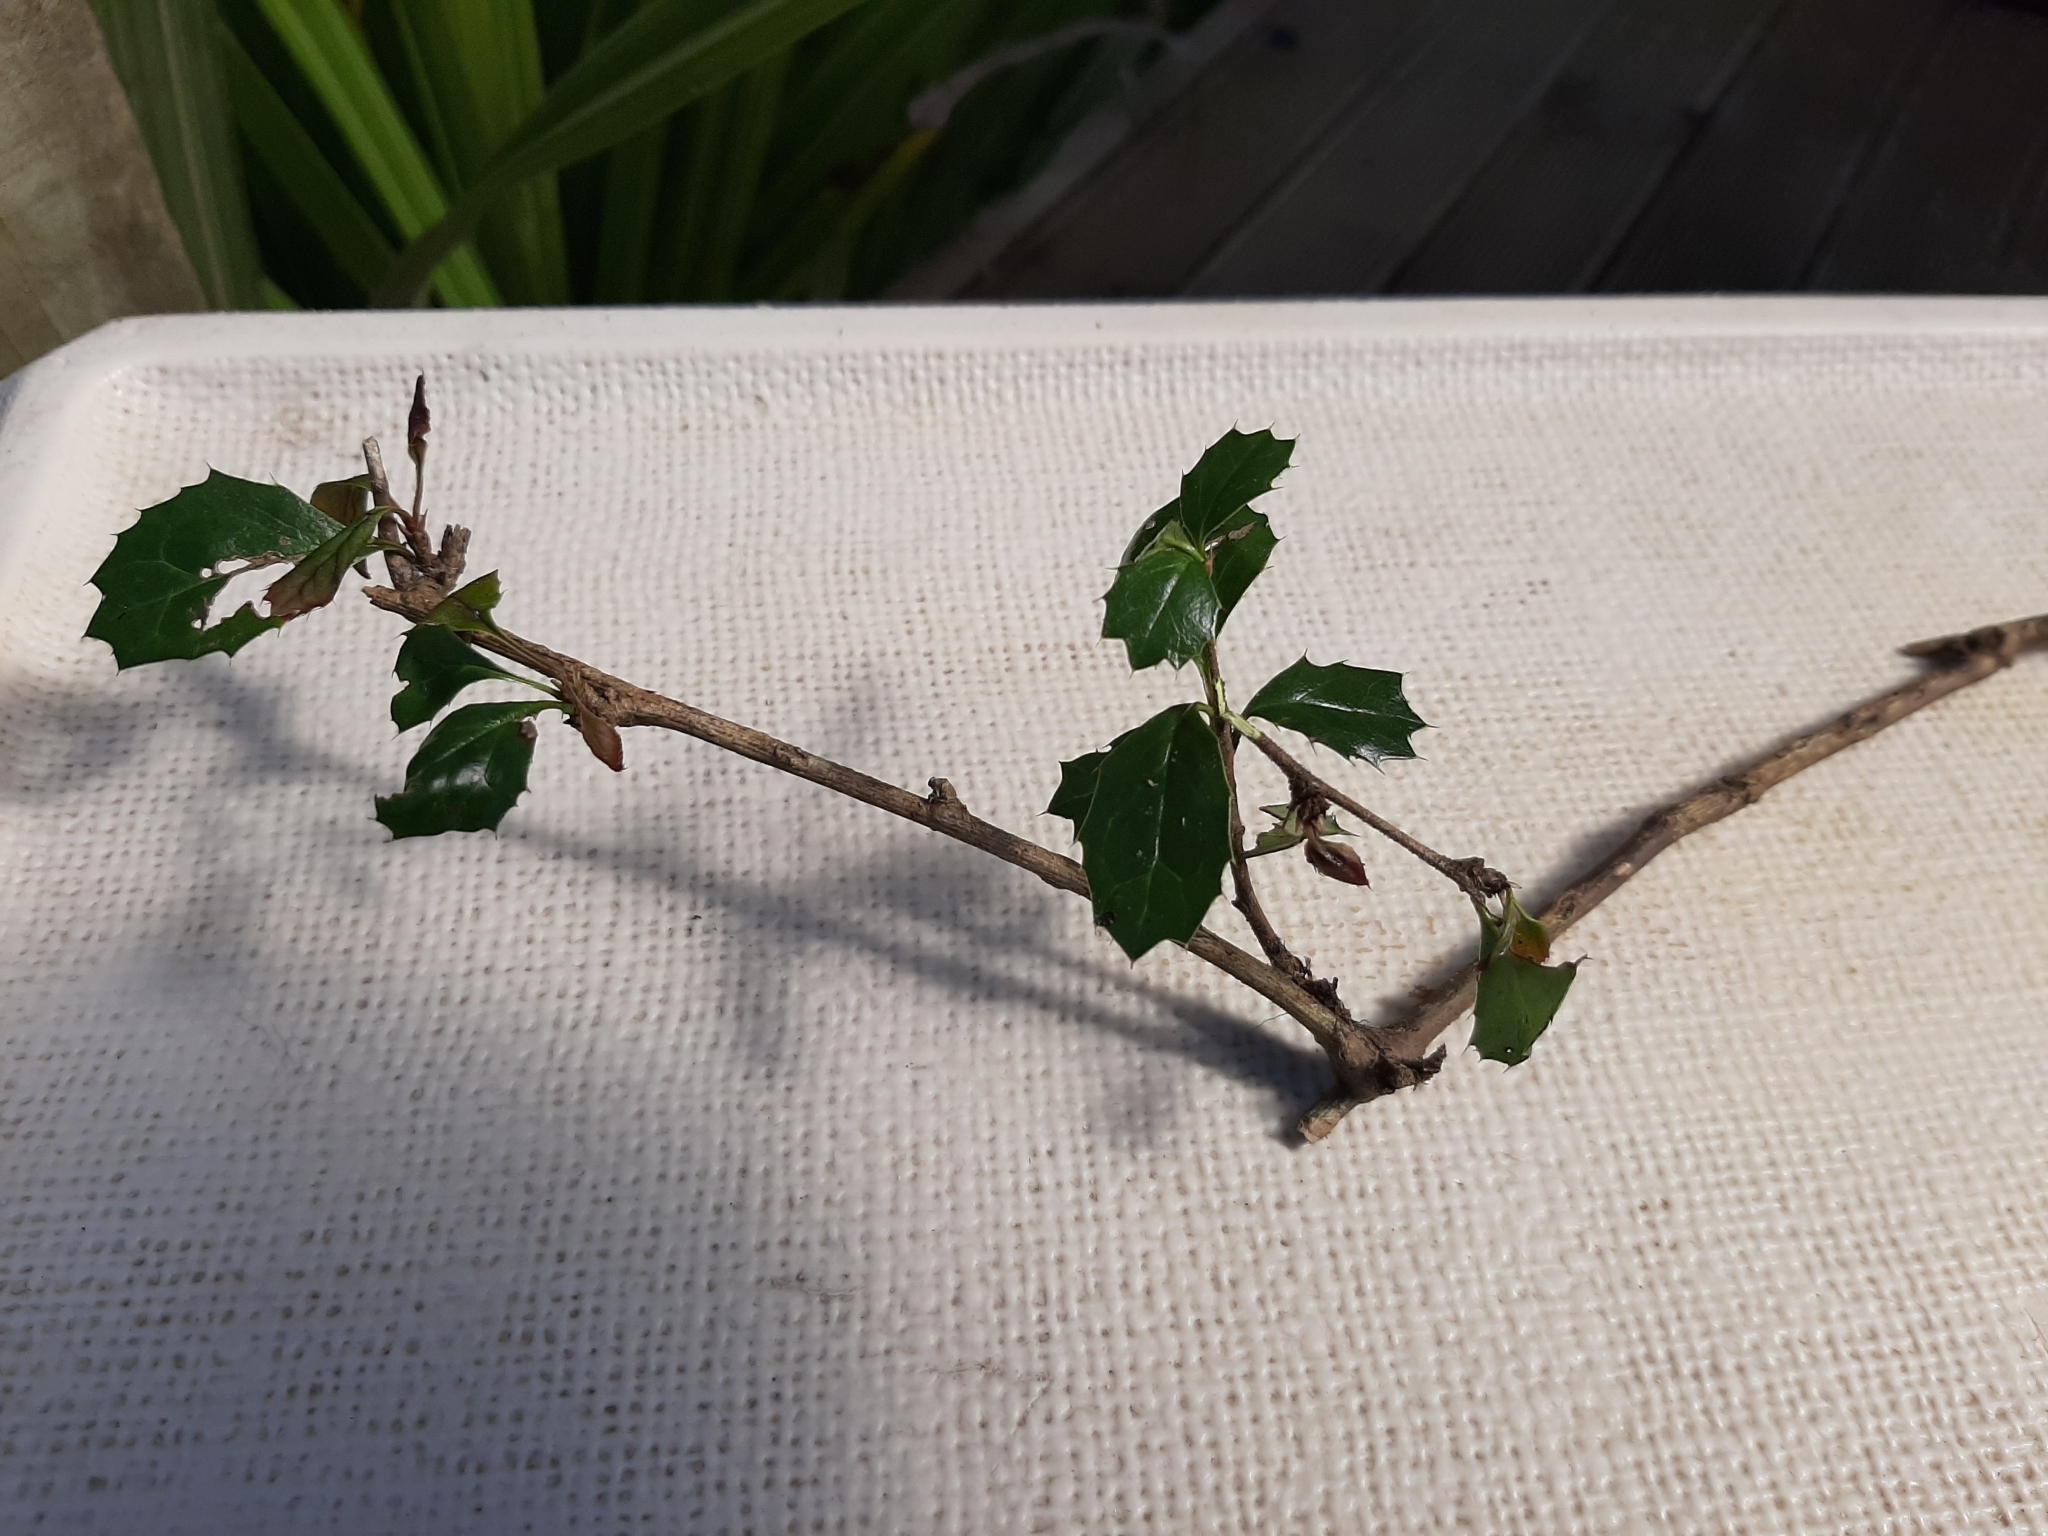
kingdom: Plantae
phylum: Tracheophyta
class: Magnoliopsida
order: Ranunculales
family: Berberidaceae
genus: Berberis
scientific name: Berberis darwinii
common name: Darwin's barberry
